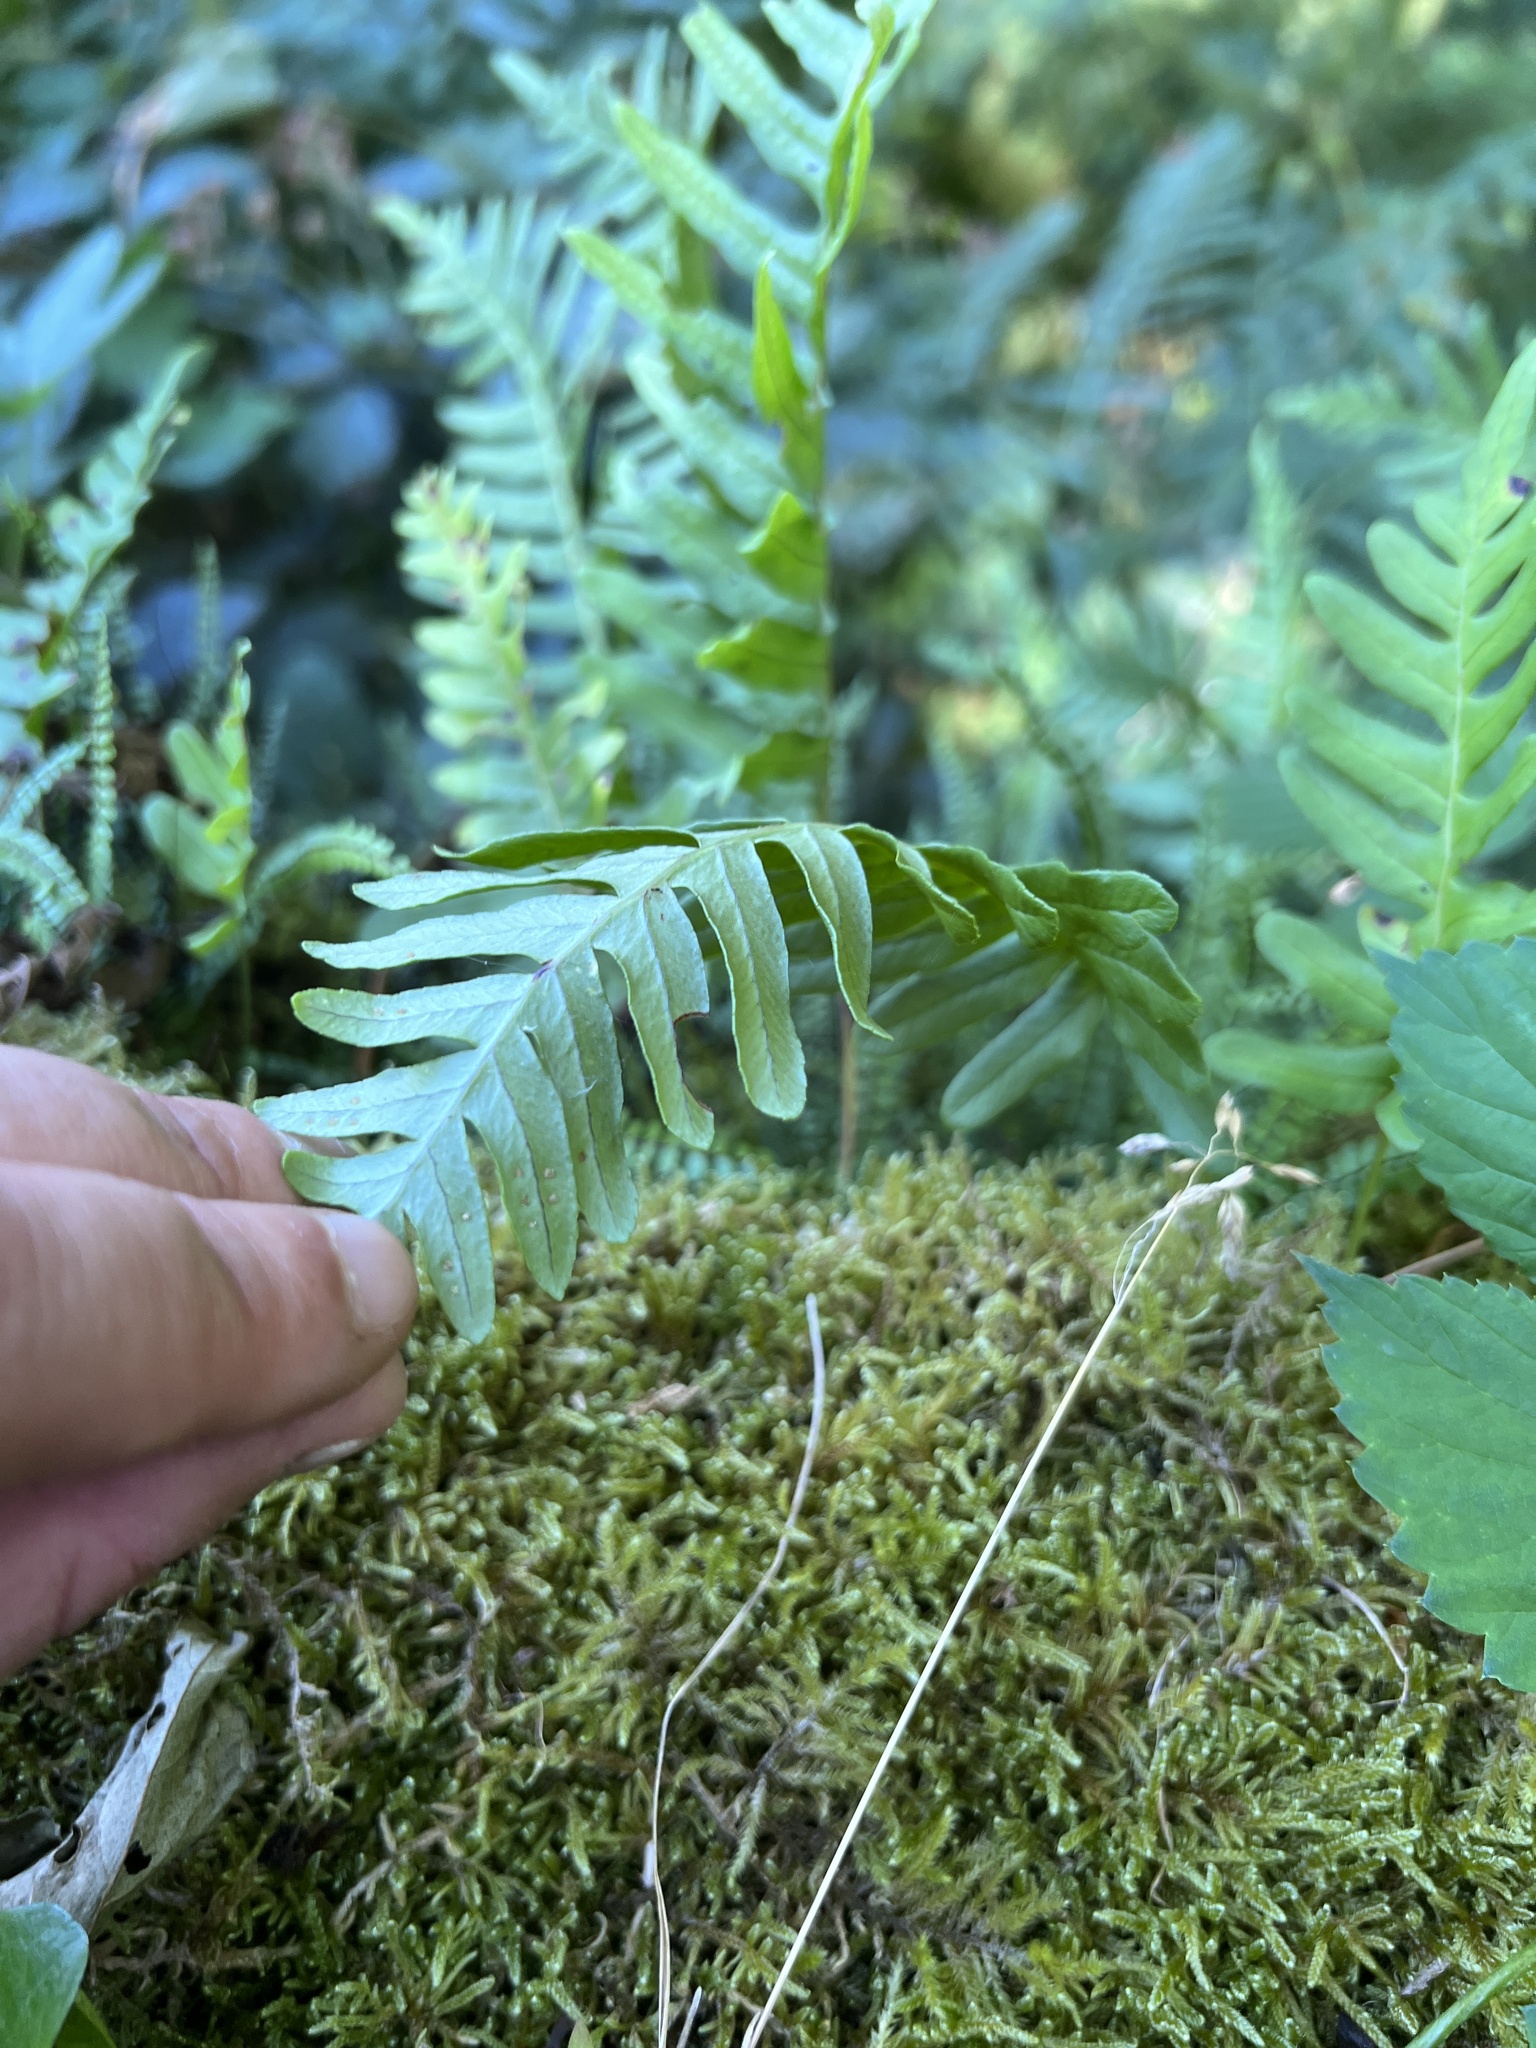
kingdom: Plantae
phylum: Tracheophyta
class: Polypodiopsida
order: Polypodiales
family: Polypodiaceae
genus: Polypodium
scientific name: Polypodium vulgare
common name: Common polypody
